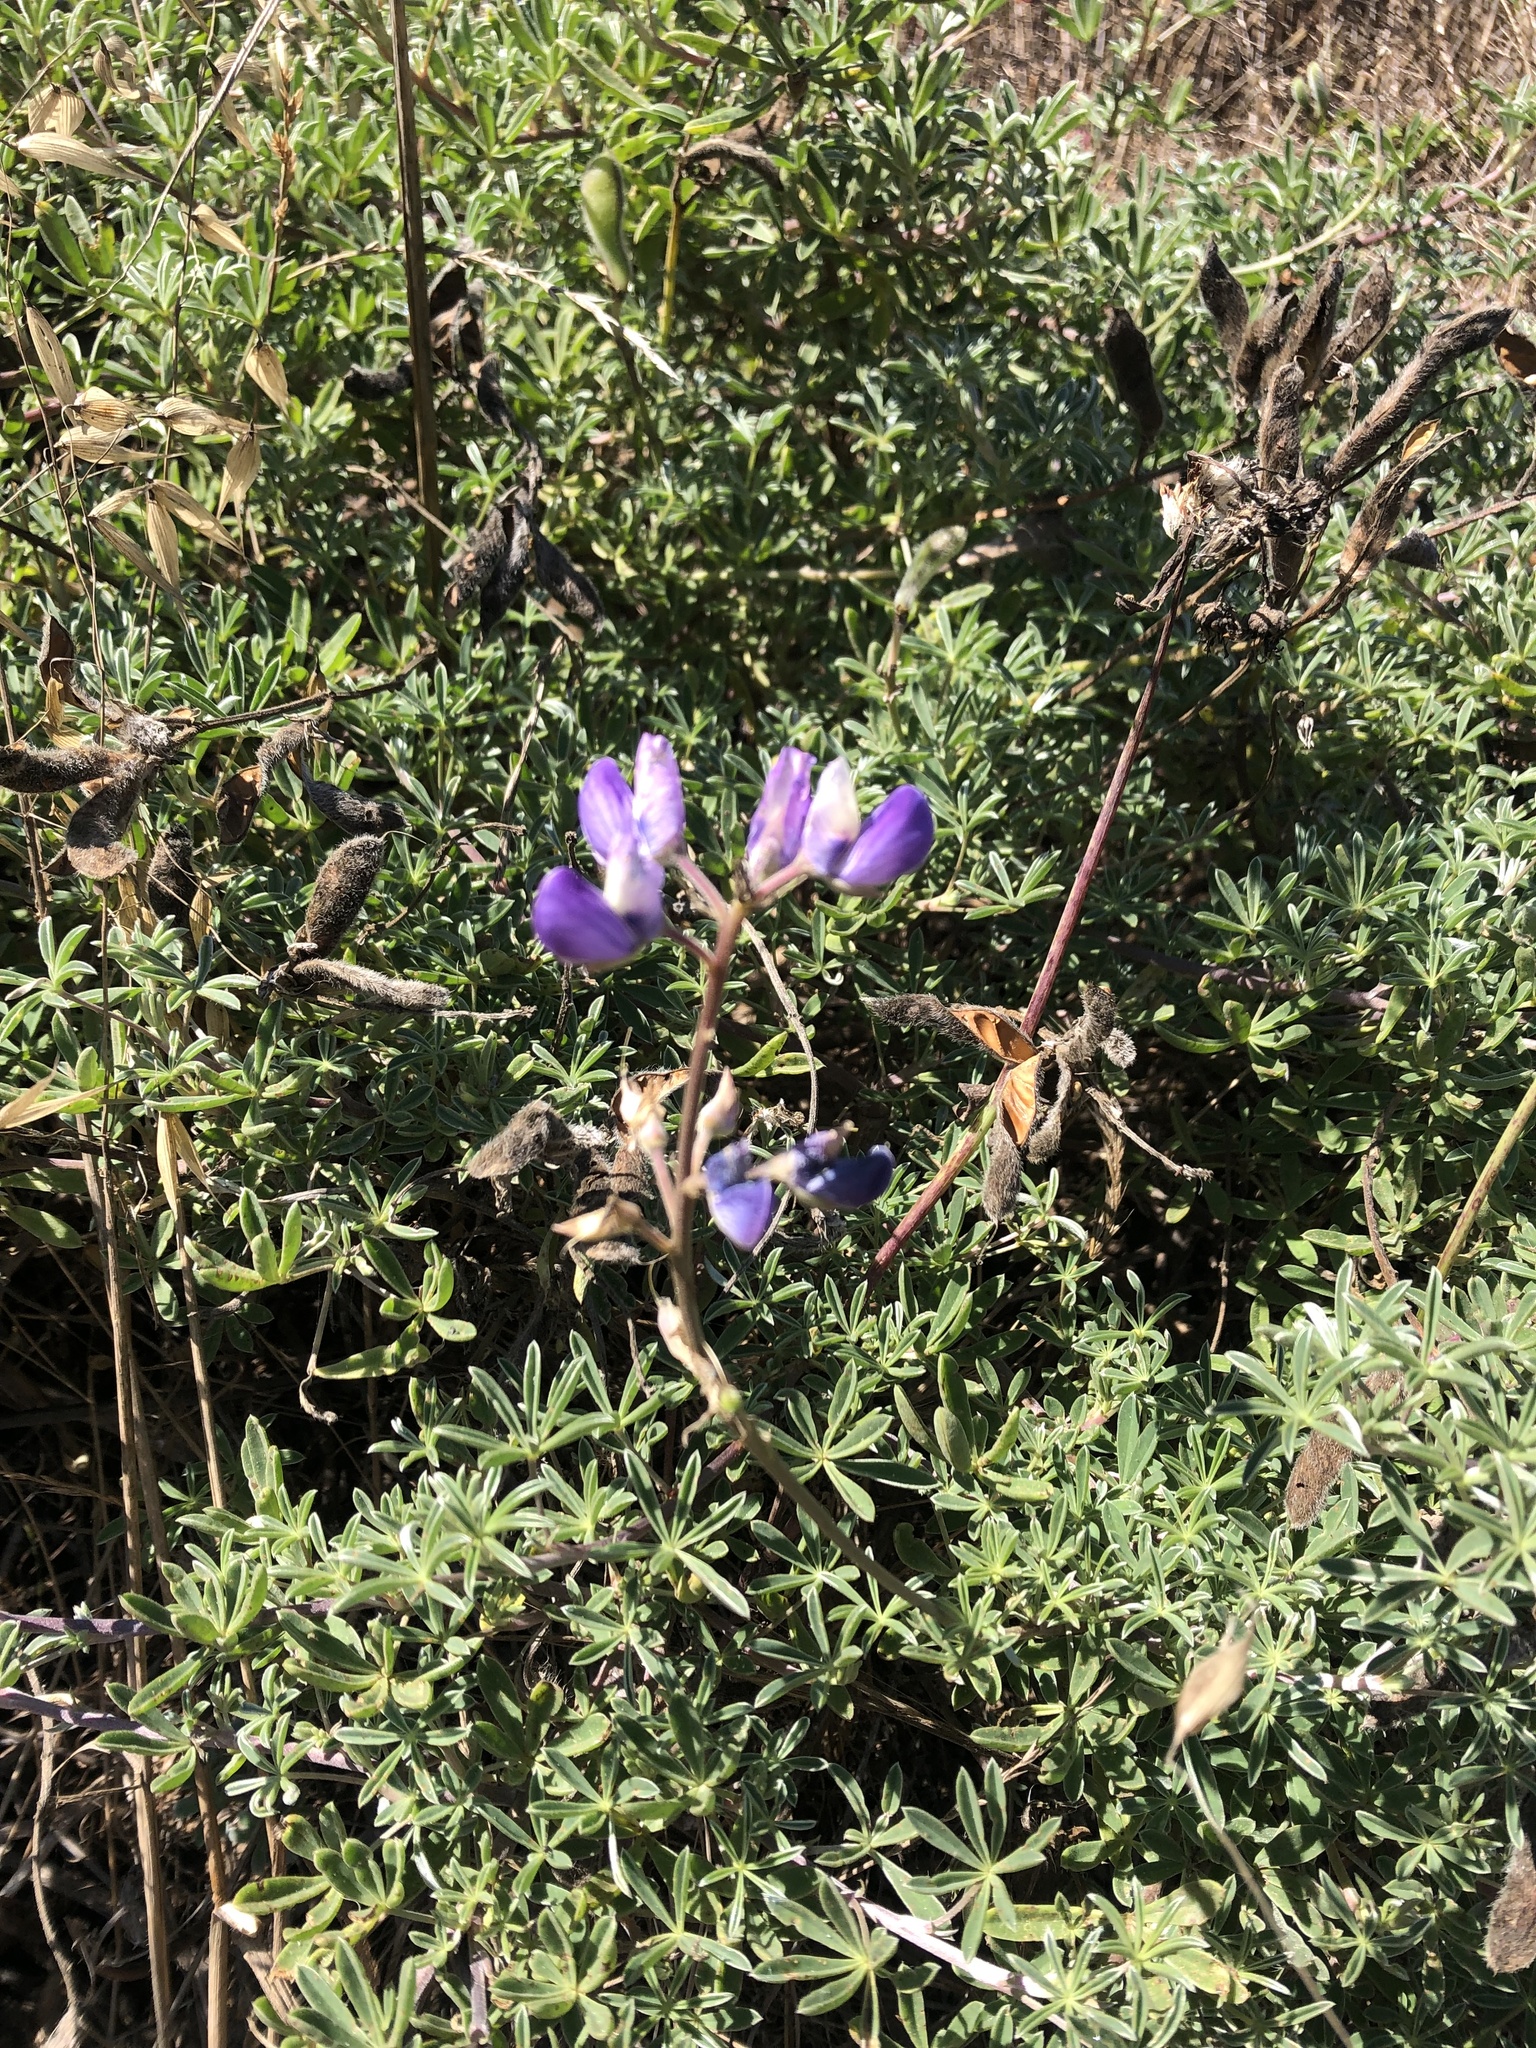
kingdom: Plantae
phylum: Tracheophyta
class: Magnoliopsida
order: Fabales
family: Fabaceae
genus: Lupinus
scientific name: Lupinus littoralis
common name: Seashore lupine
